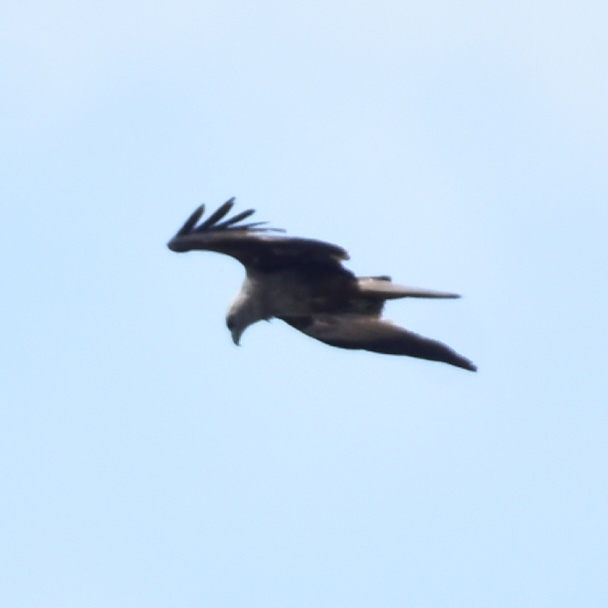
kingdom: Animalia
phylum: Chordata
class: Aves
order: Accipitriformes
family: Accipitridae
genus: Haliastur
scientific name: Haliastur indus
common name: Brahminy kite
